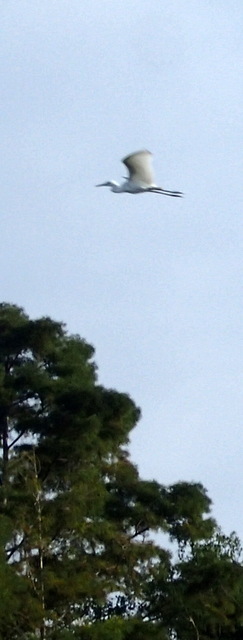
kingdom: Animalia
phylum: Chordata
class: Aves
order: Pelecaniformes
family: Ardeidae
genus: Ardea
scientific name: Ardea alba
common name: Great egret
